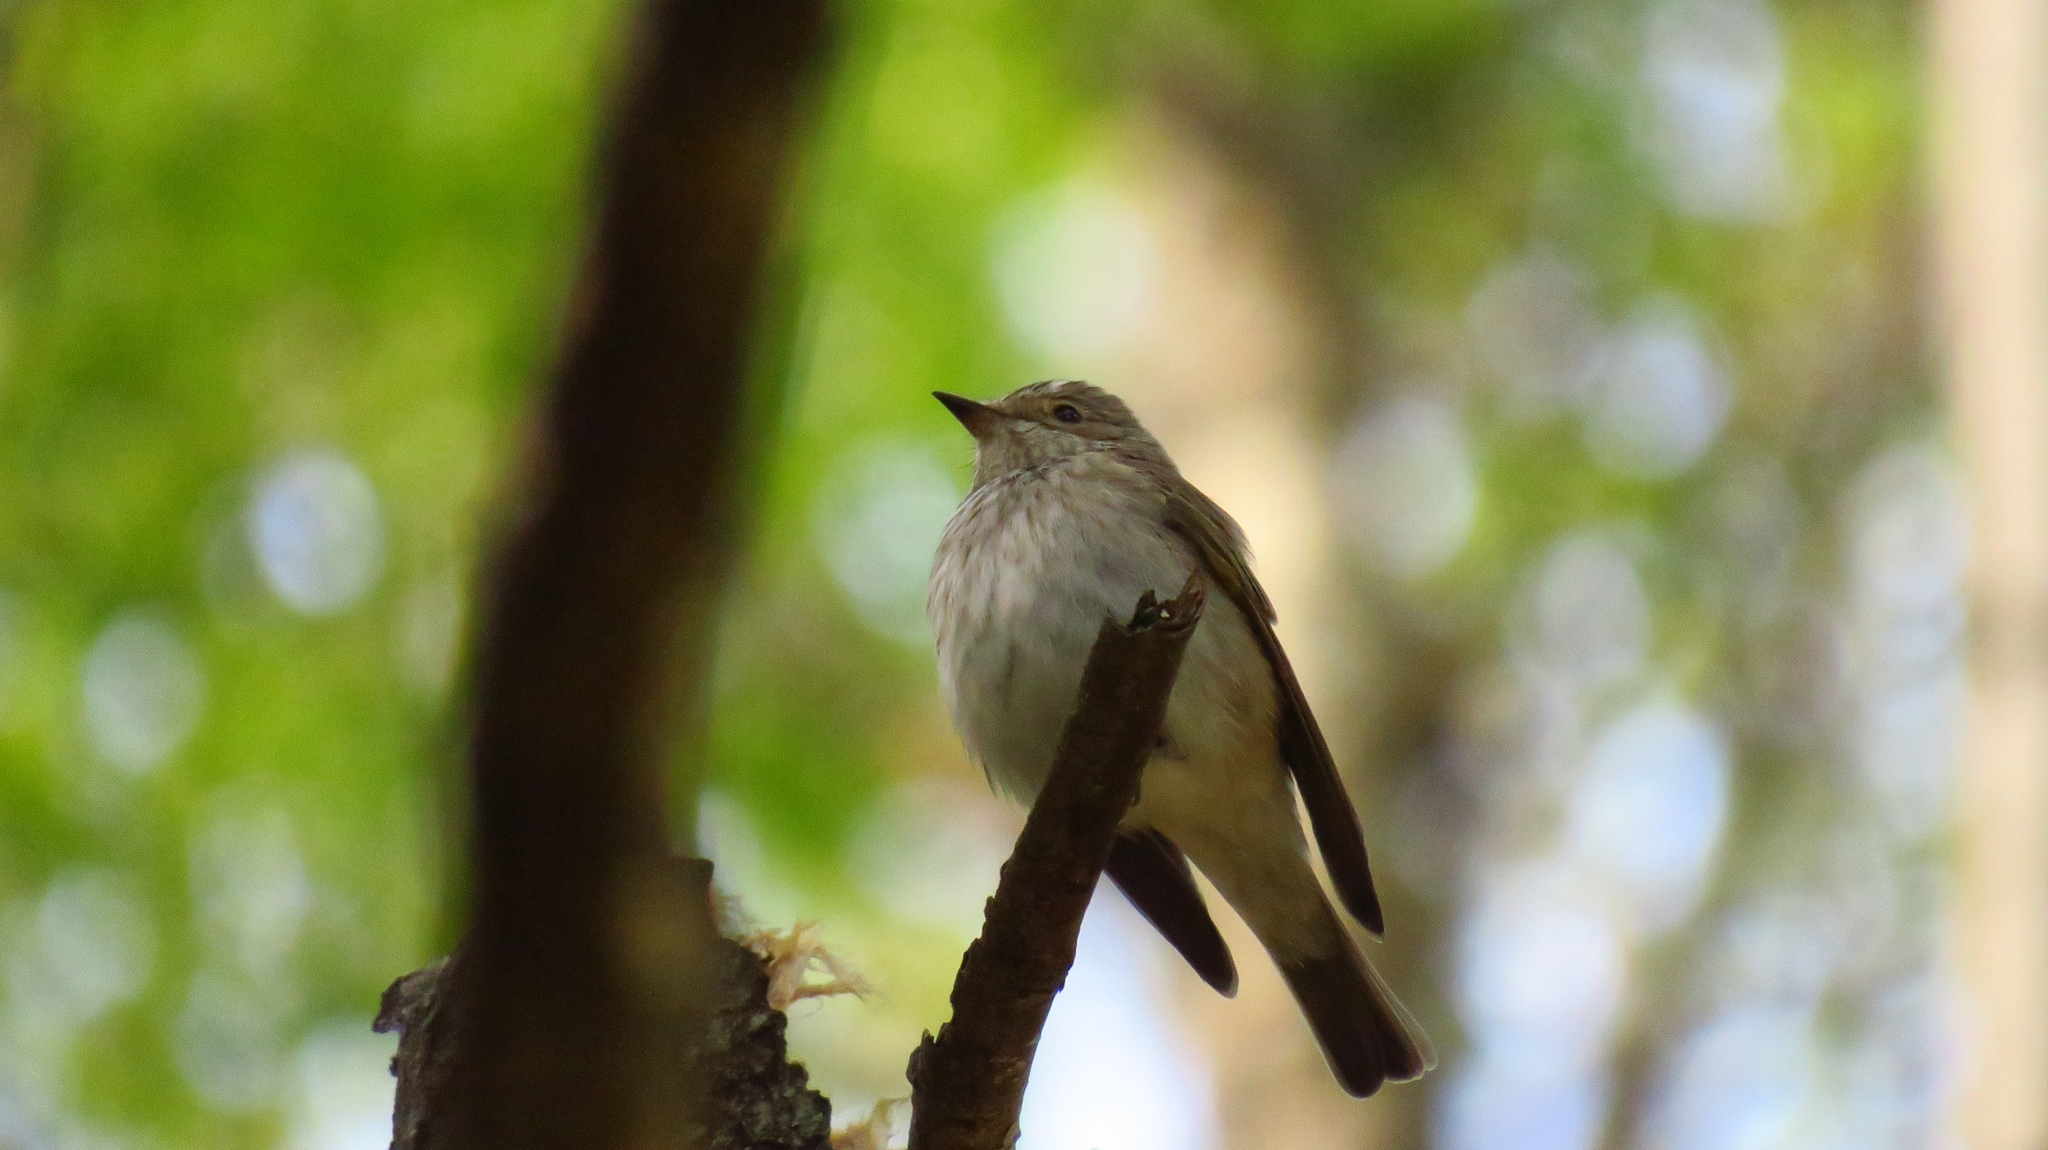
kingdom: Animalia
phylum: Chordata
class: Aves
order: Passeriformes
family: Muscicapidae
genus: Muscicapa
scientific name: Muscicapa striata
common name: Spotted flycatcher
